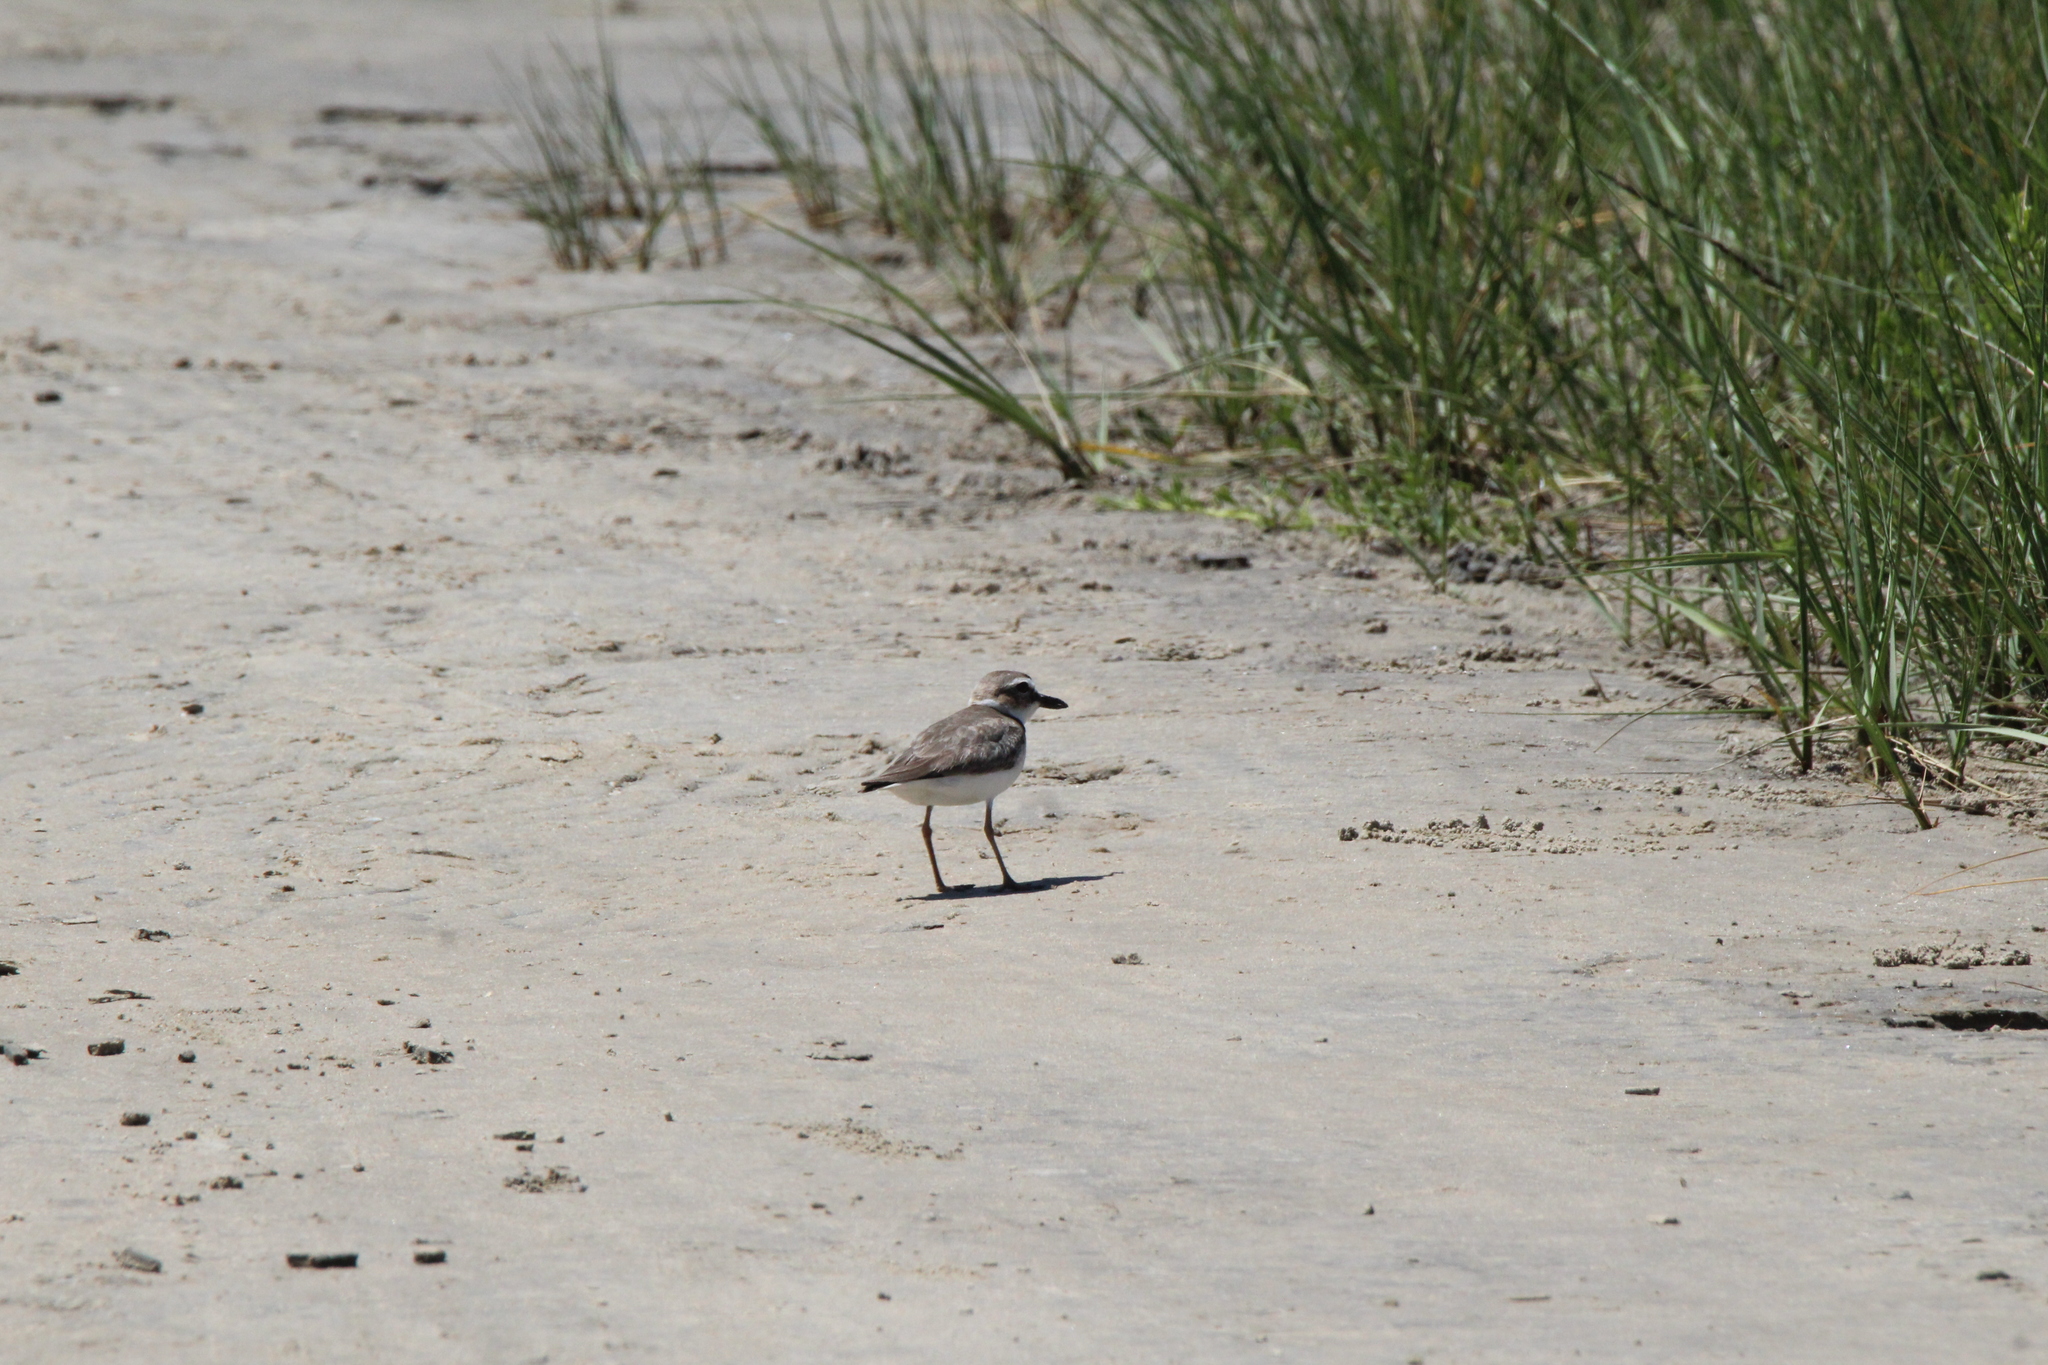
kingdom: Animalia
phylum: Chordata
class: Aves
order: Charadriiformes
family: Charadriidae
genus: Anarhynchus
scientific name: Anarhynchus
